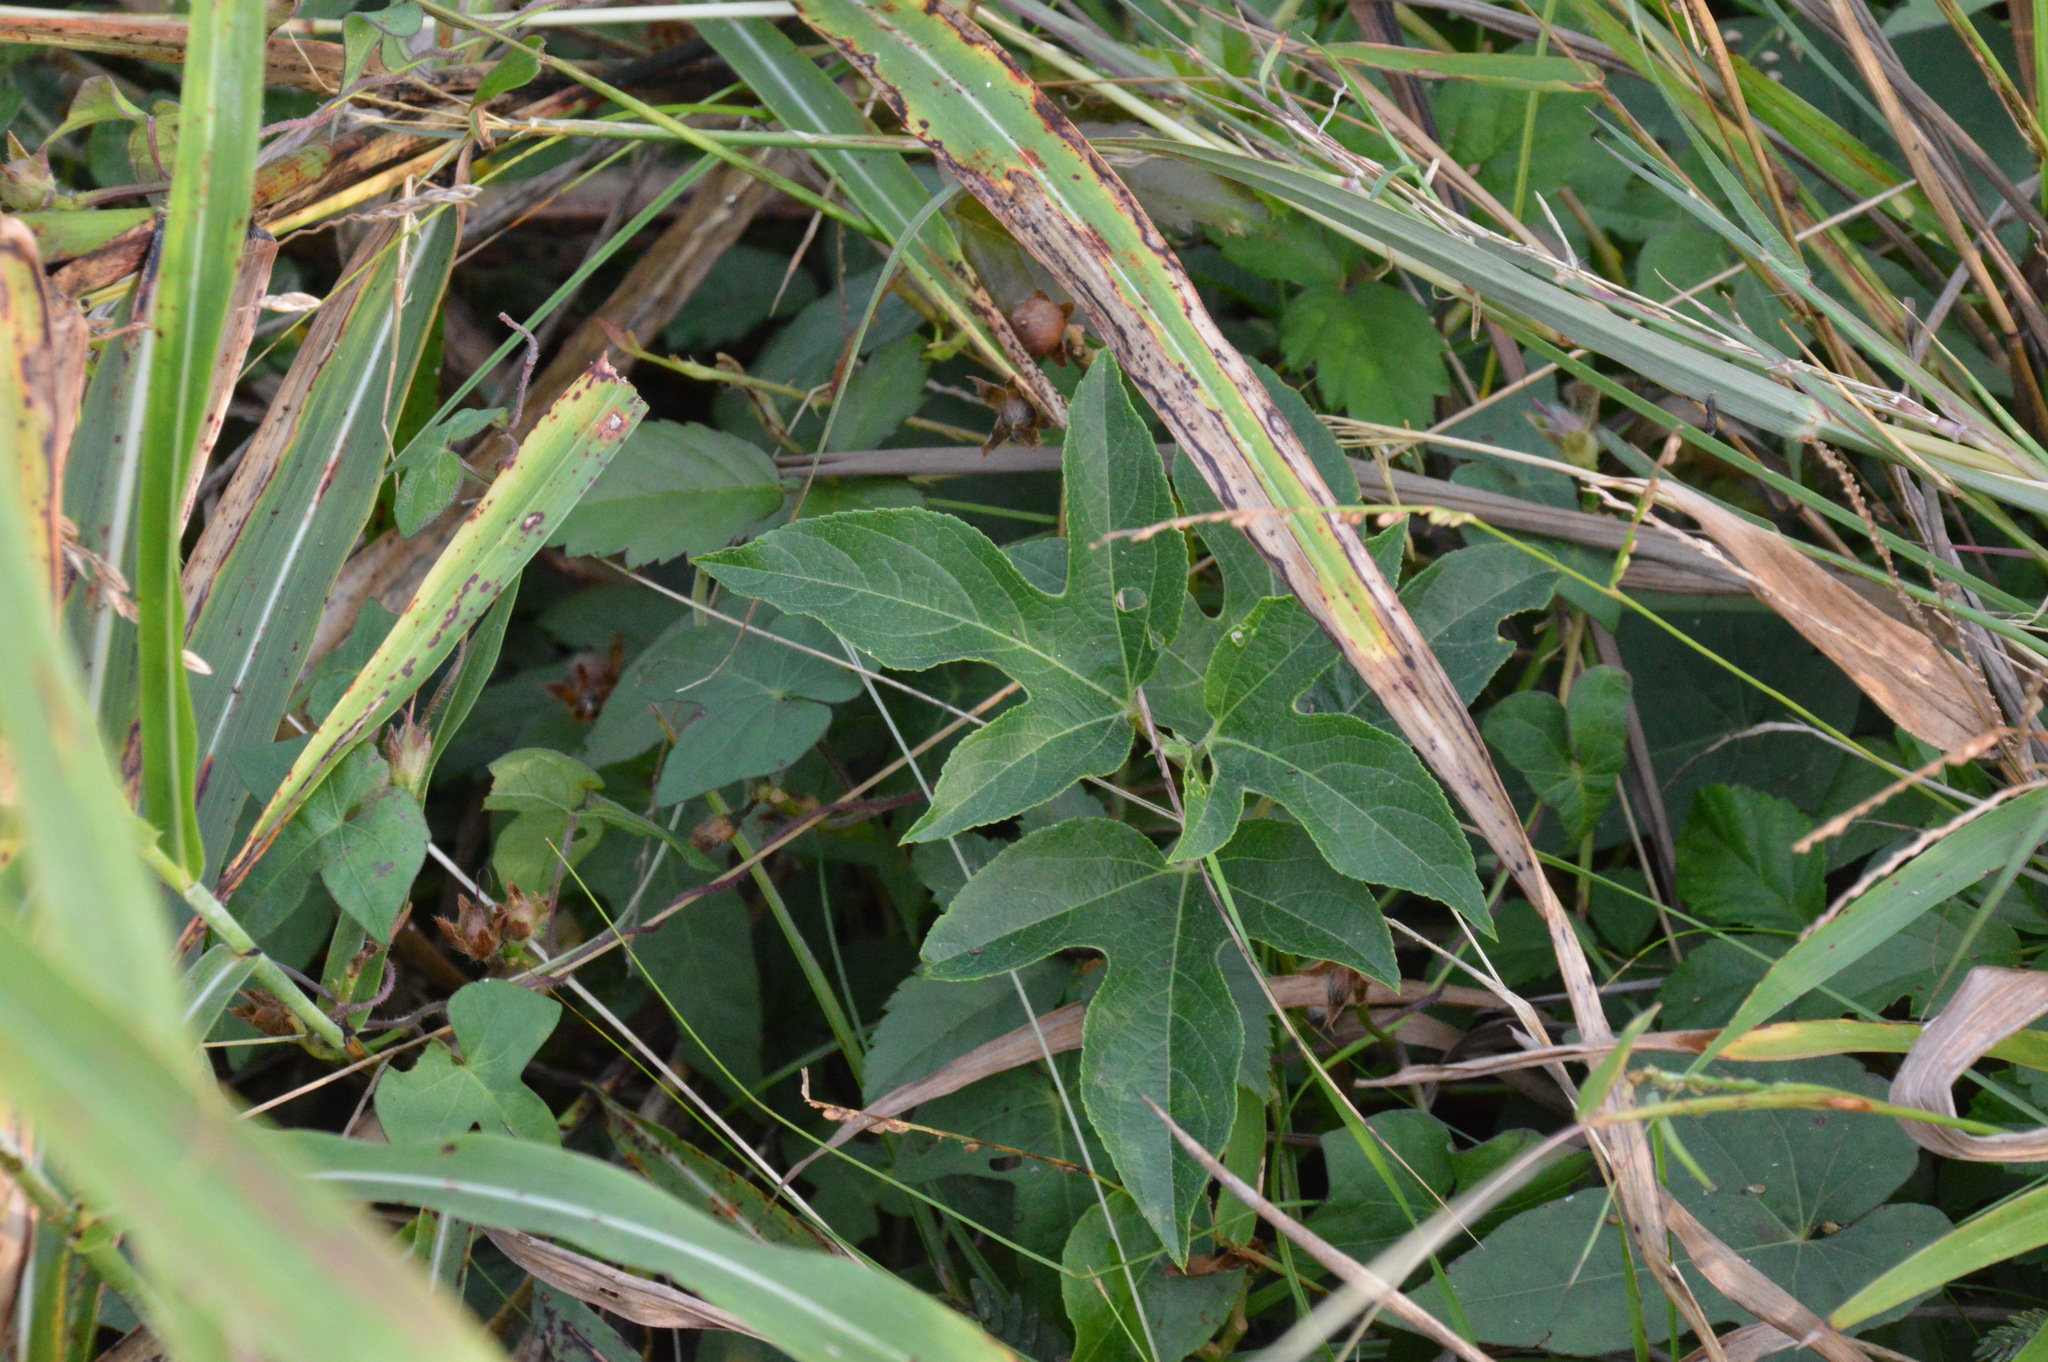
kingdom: Plantae
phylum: Tracheophyta
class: Magnoliopsida
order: Malpighiales
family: Passifloraceae
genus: Passiflora
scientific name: Passiflora incarnata
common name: Apricot-vine
